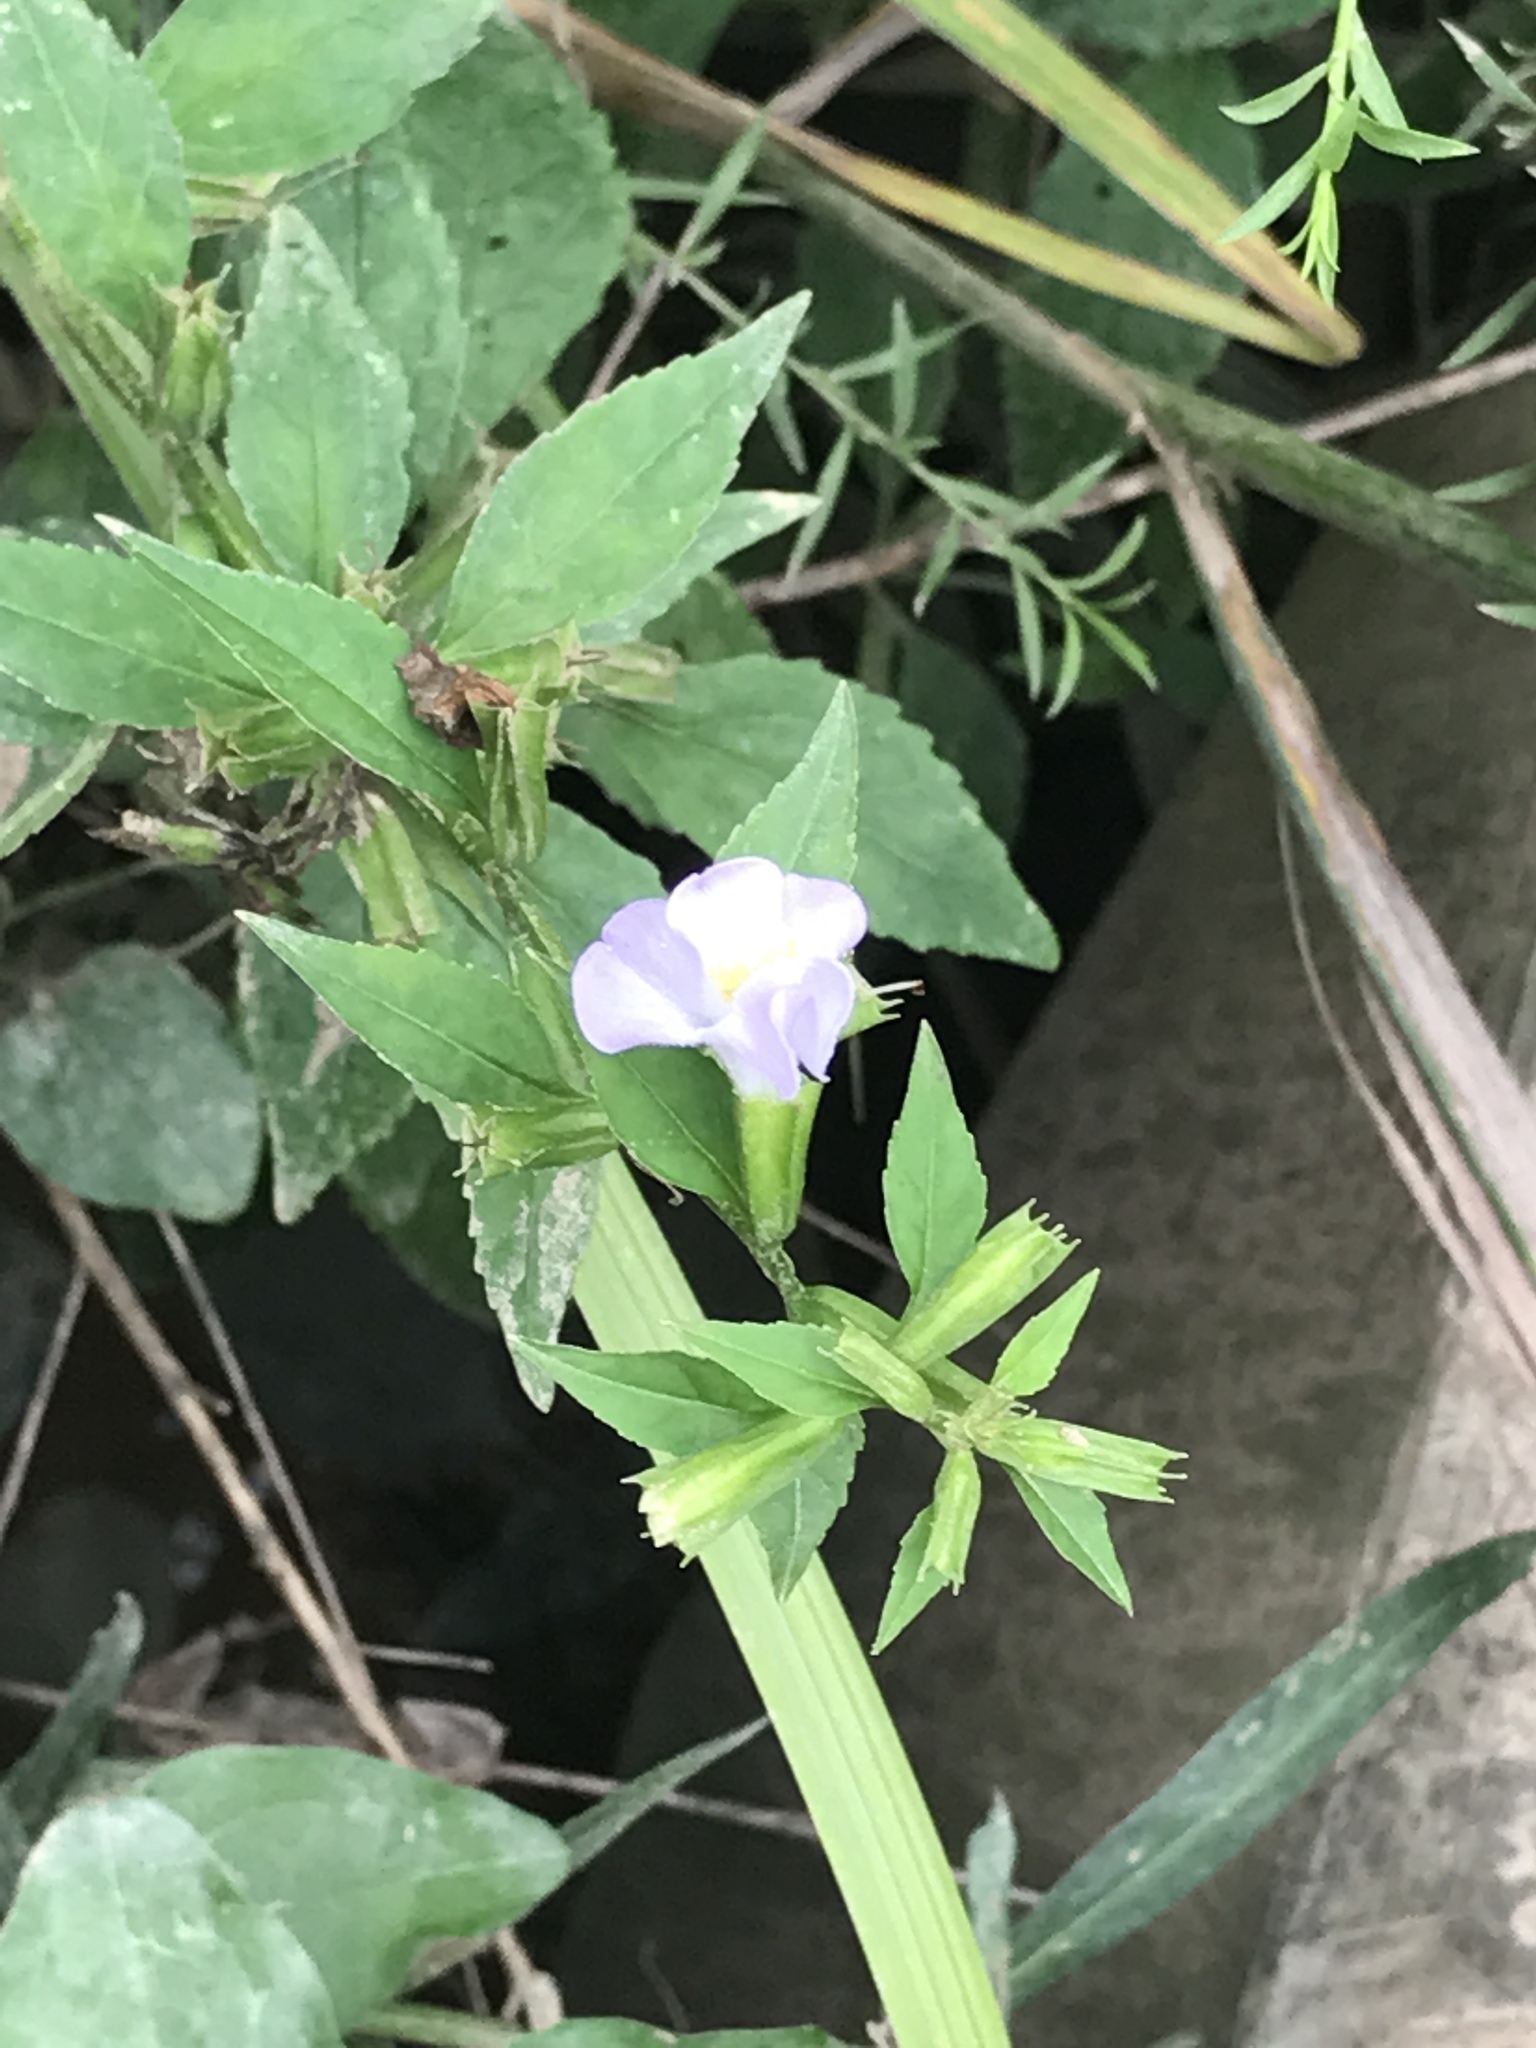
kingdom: Plantae
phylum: Tracheophyta
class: Magnoliopsida
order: Lamiales
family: Phrymaceae
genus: Mimulus
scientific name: Mimulus alatus
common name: Sharp-wing monkey-flower
